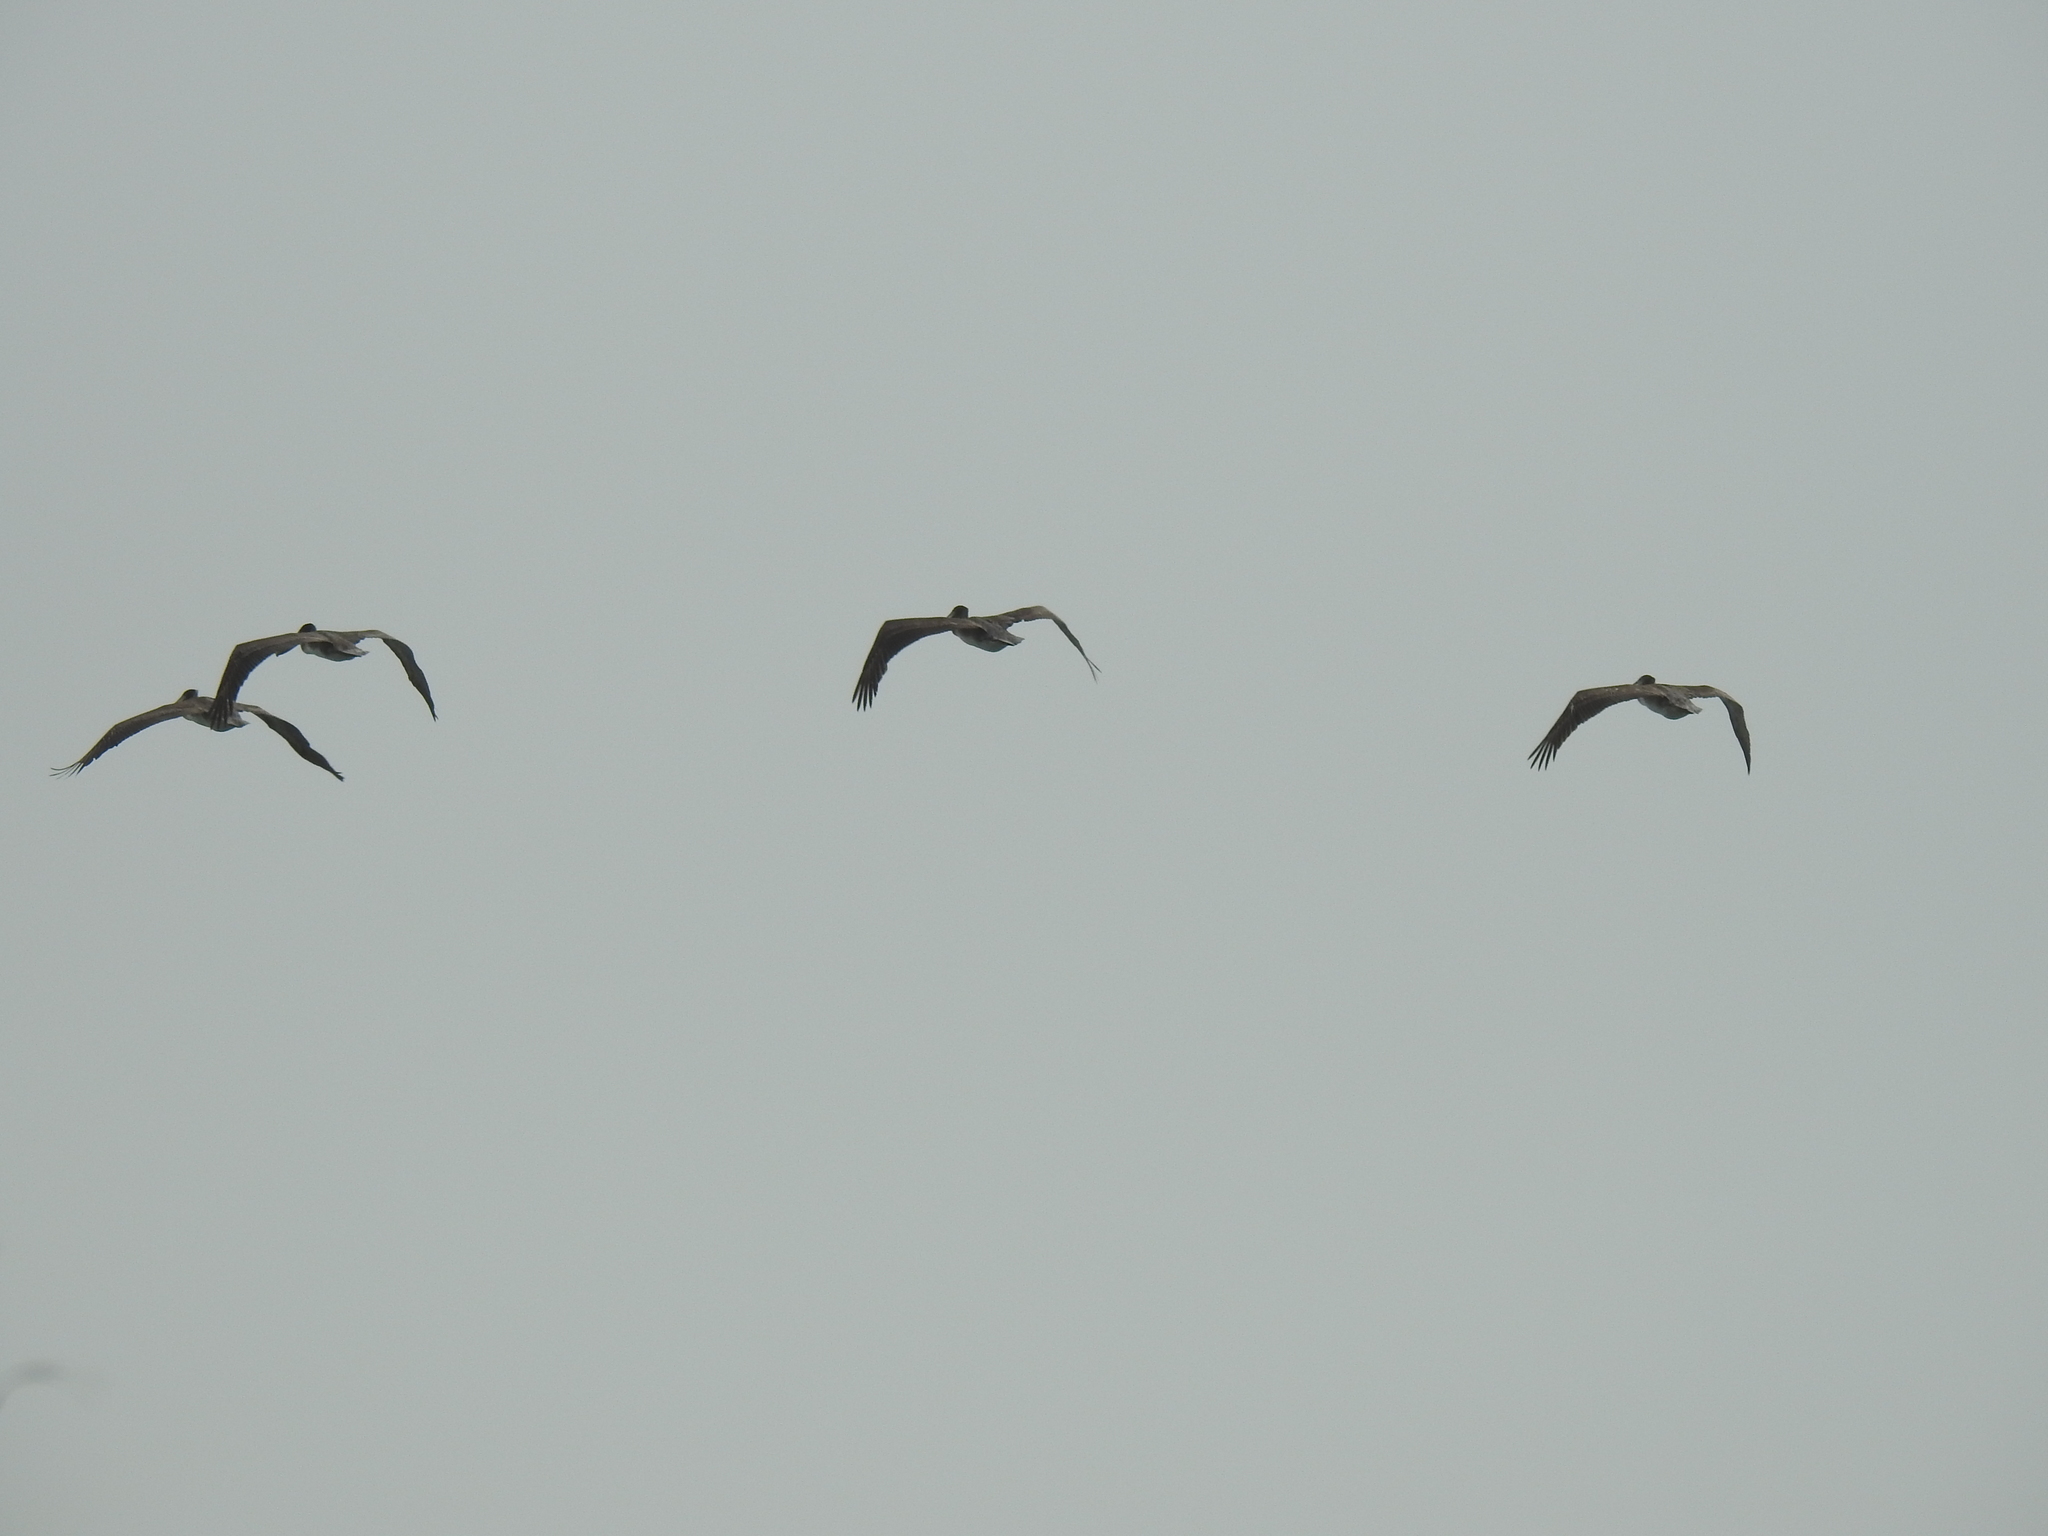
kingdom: Animalia
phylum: Chordata
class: Aves
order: Pelecaniformes
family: Pelecanidae
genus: Pelecanus
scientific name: Pelecanus occidentalis
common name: Brown pelican
